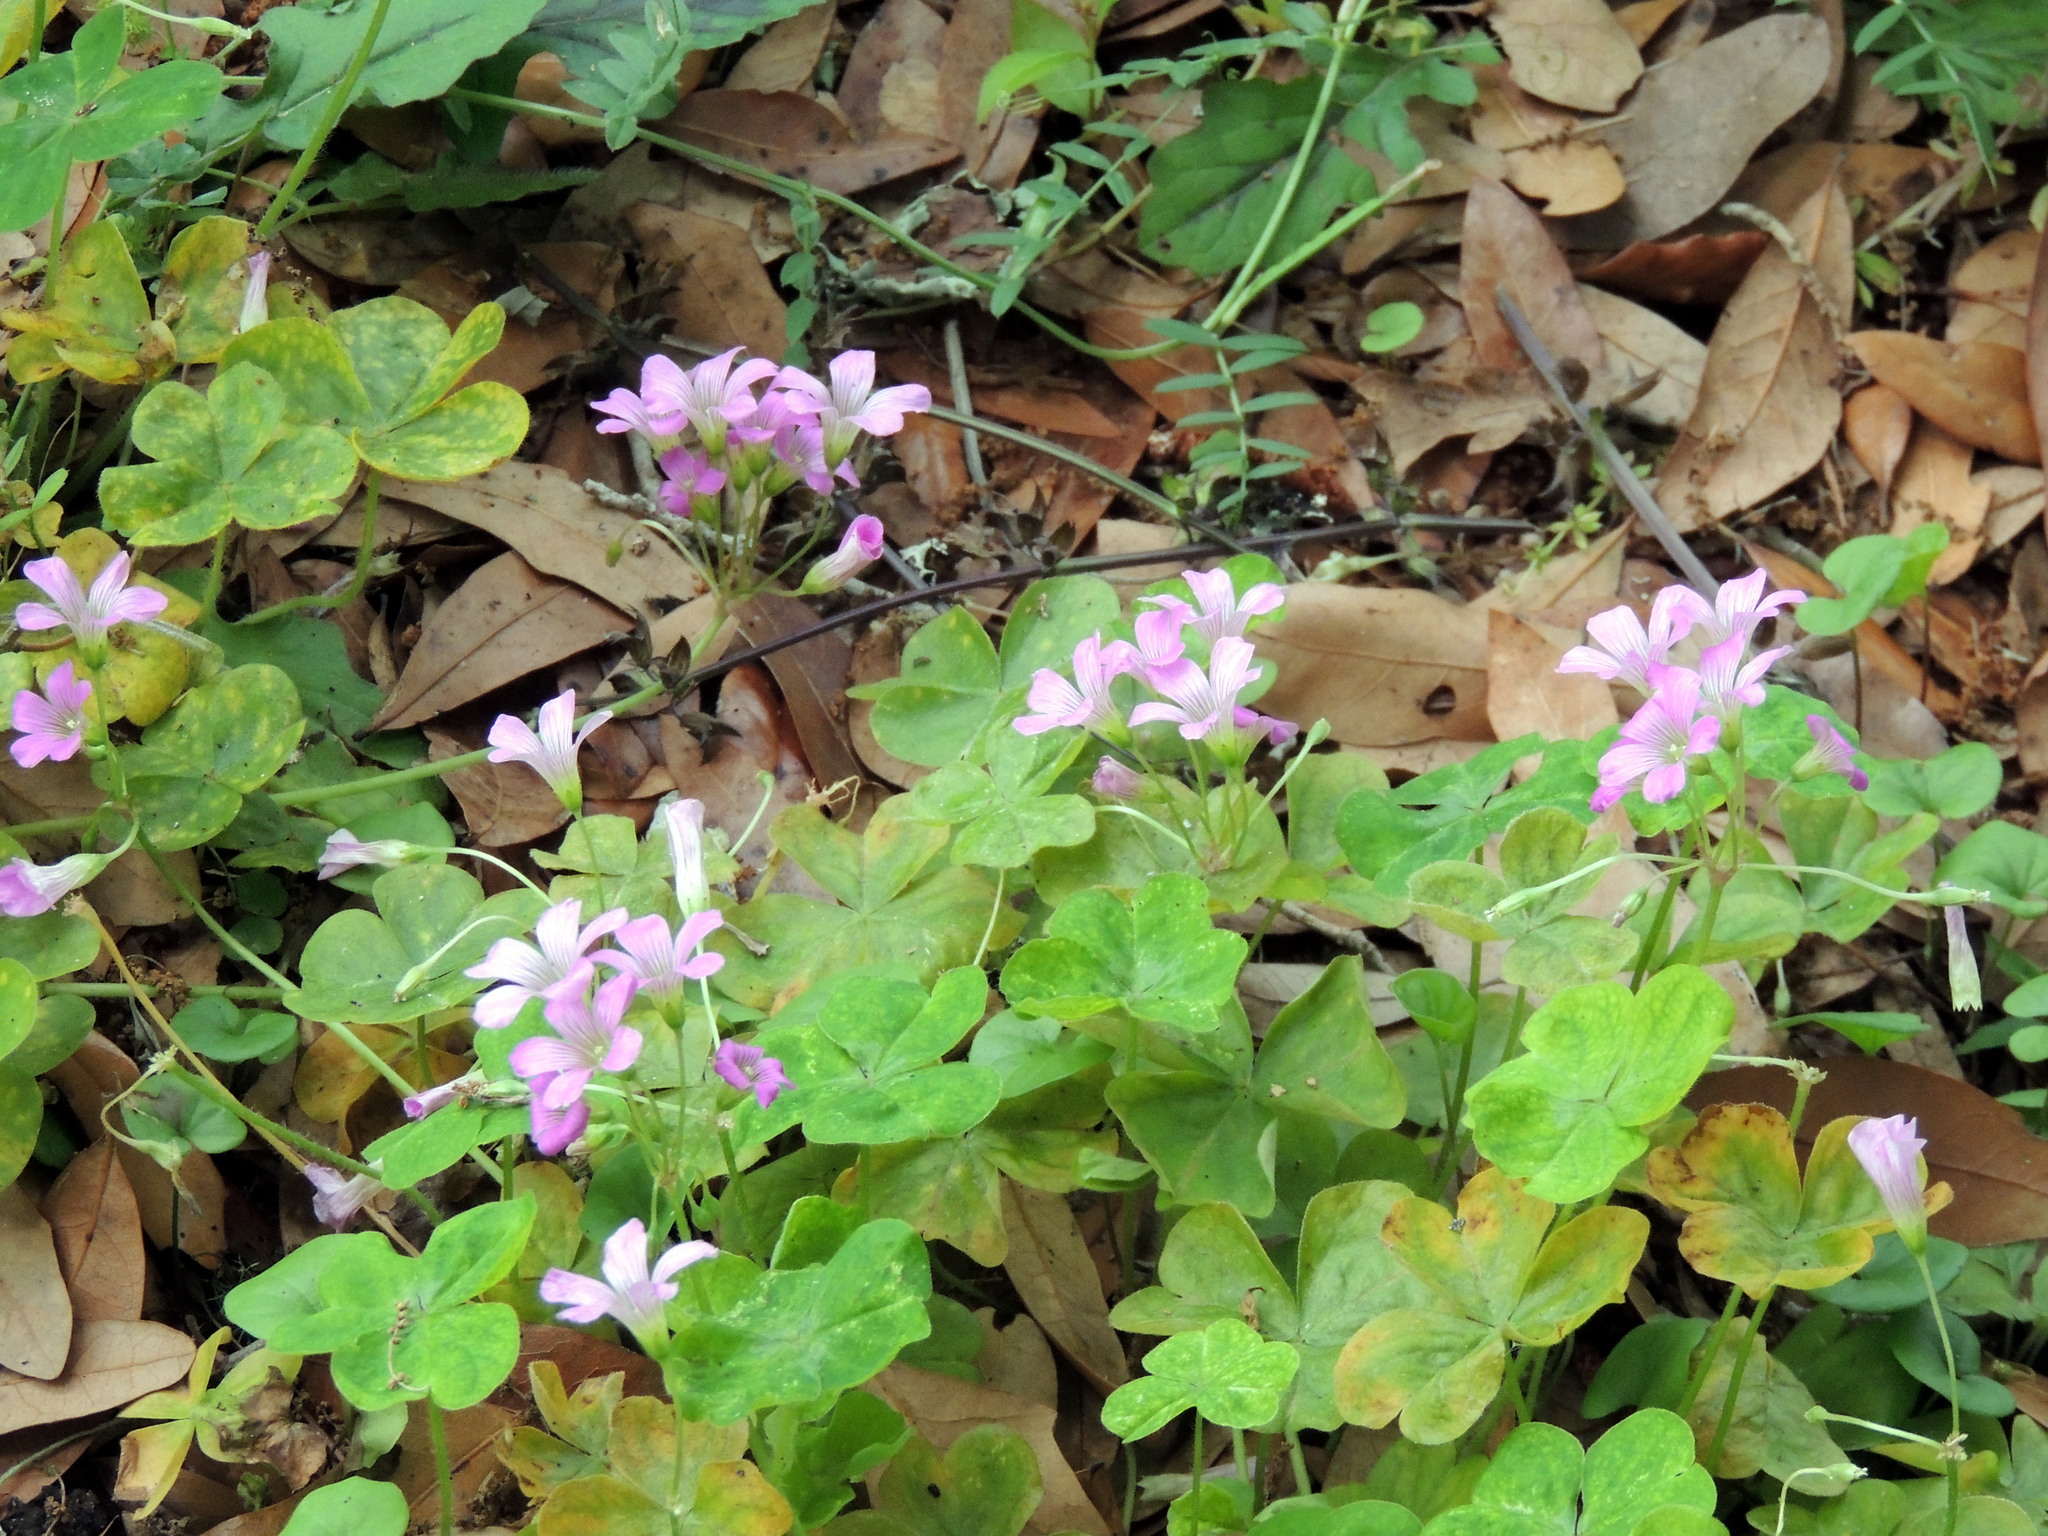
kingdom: Plantae
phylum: Tracheophyta
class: Magnoliopsida
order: Oxalidales
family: Oxalidaceae
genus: Oxalis
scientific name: Oxalis debilis
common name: Large-flowered pink-sorrel
